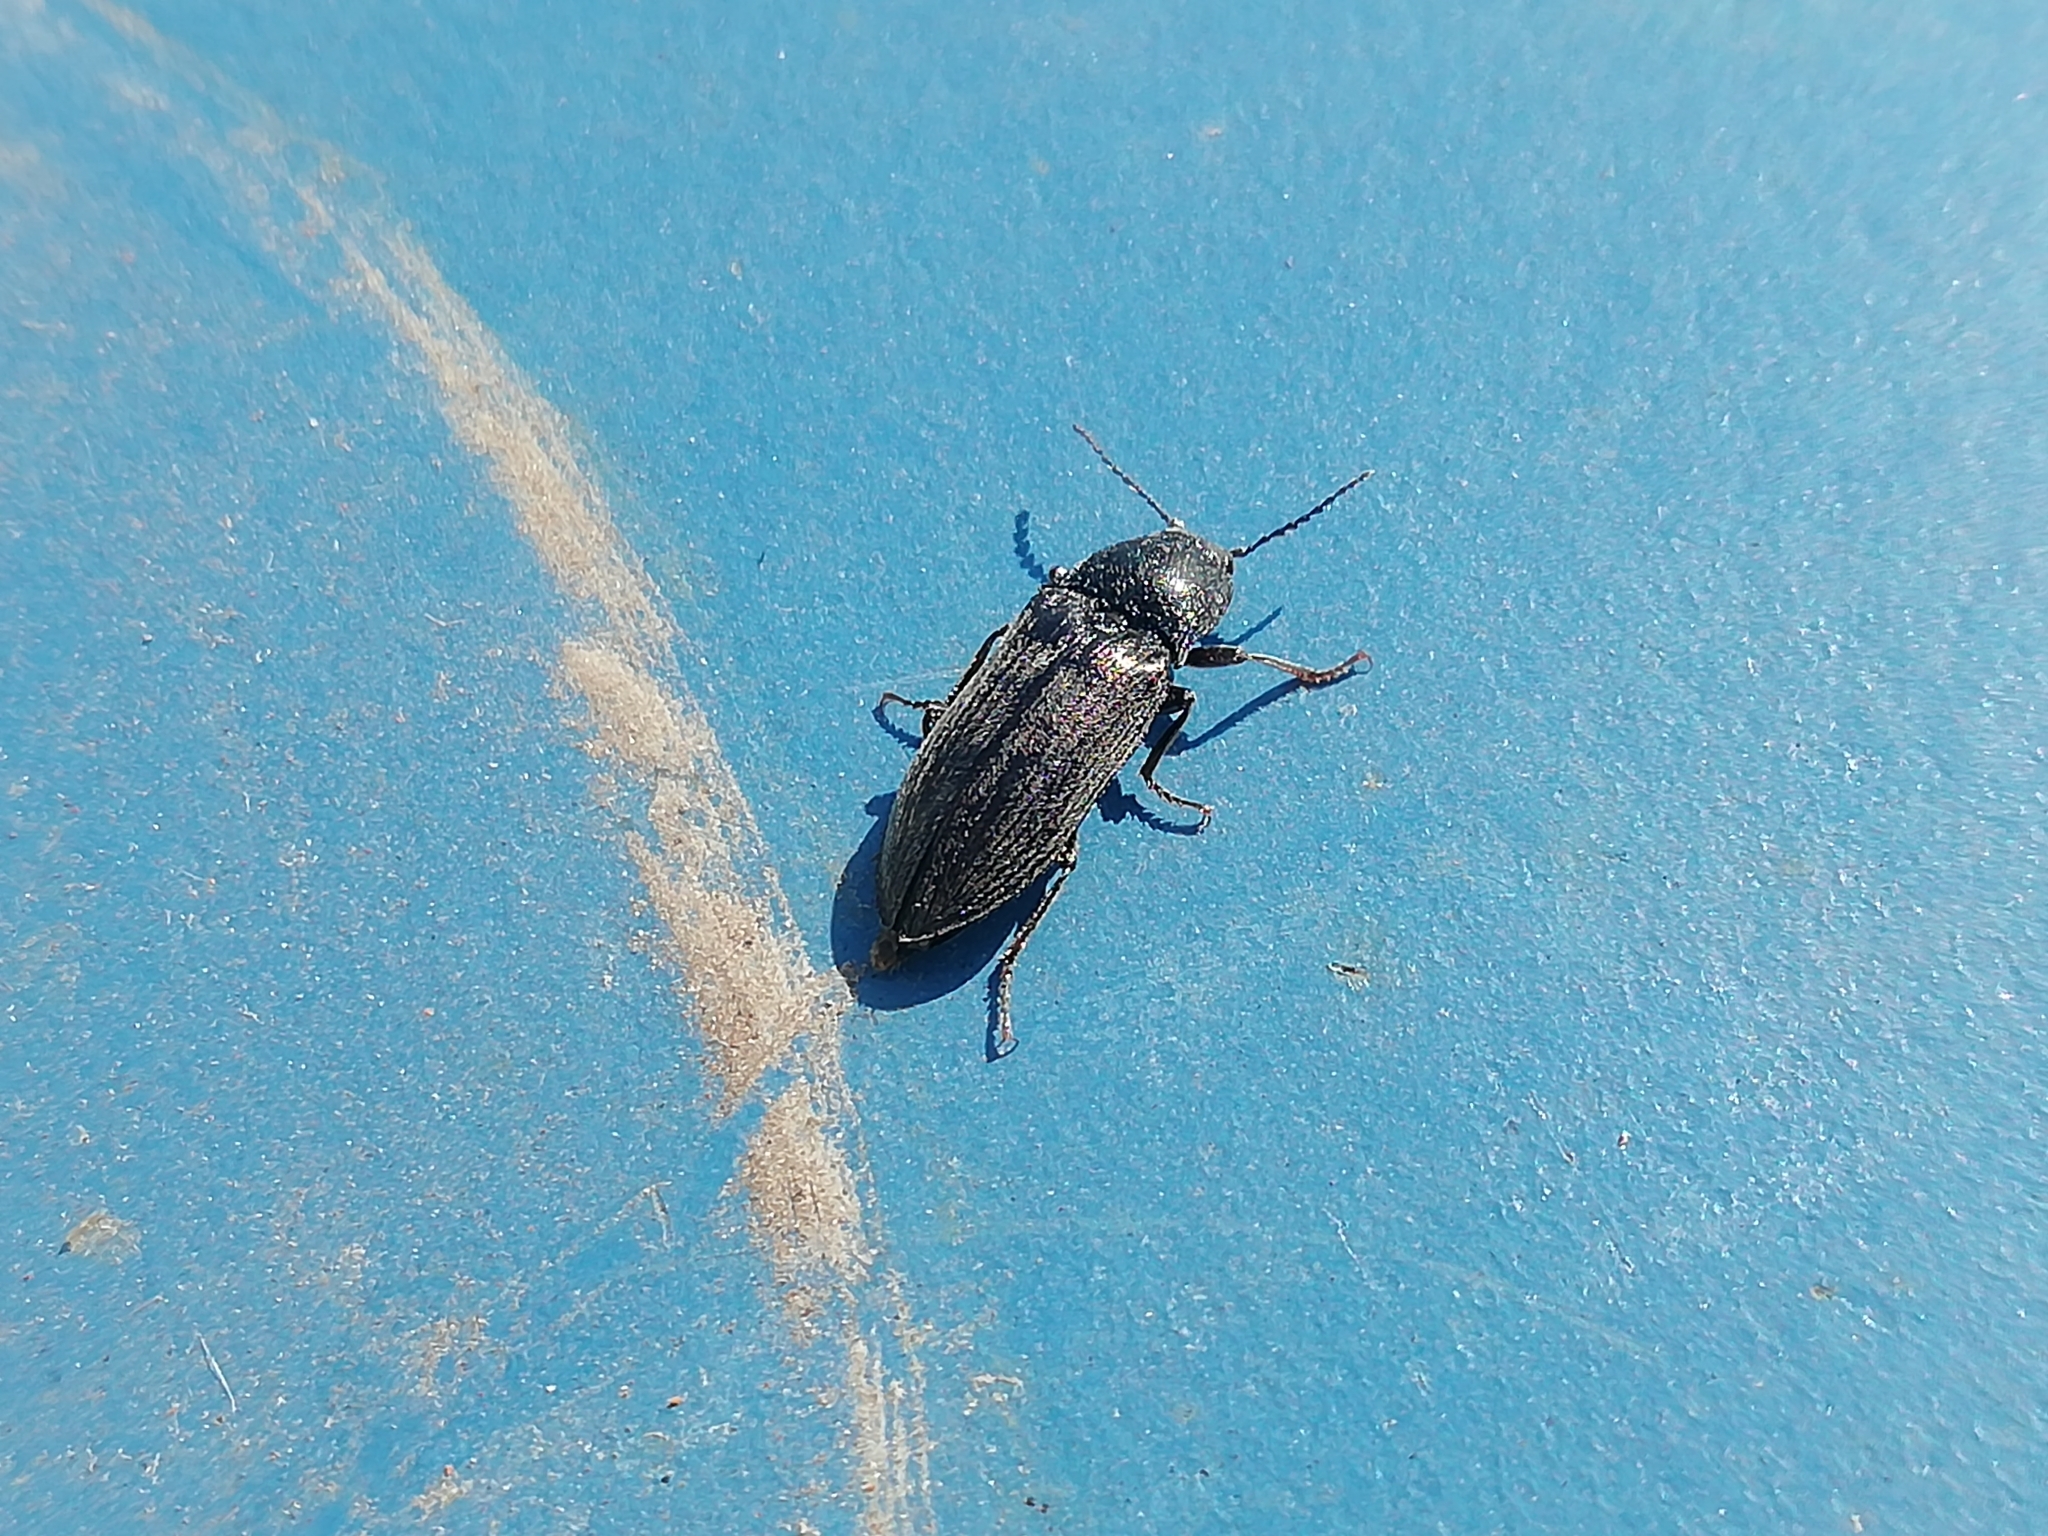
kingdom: Animalia
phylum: Arthropoda
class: Insecta
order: Coleoptera
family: Elateridae
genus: Selatosomus
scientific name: Selatosomus latus
